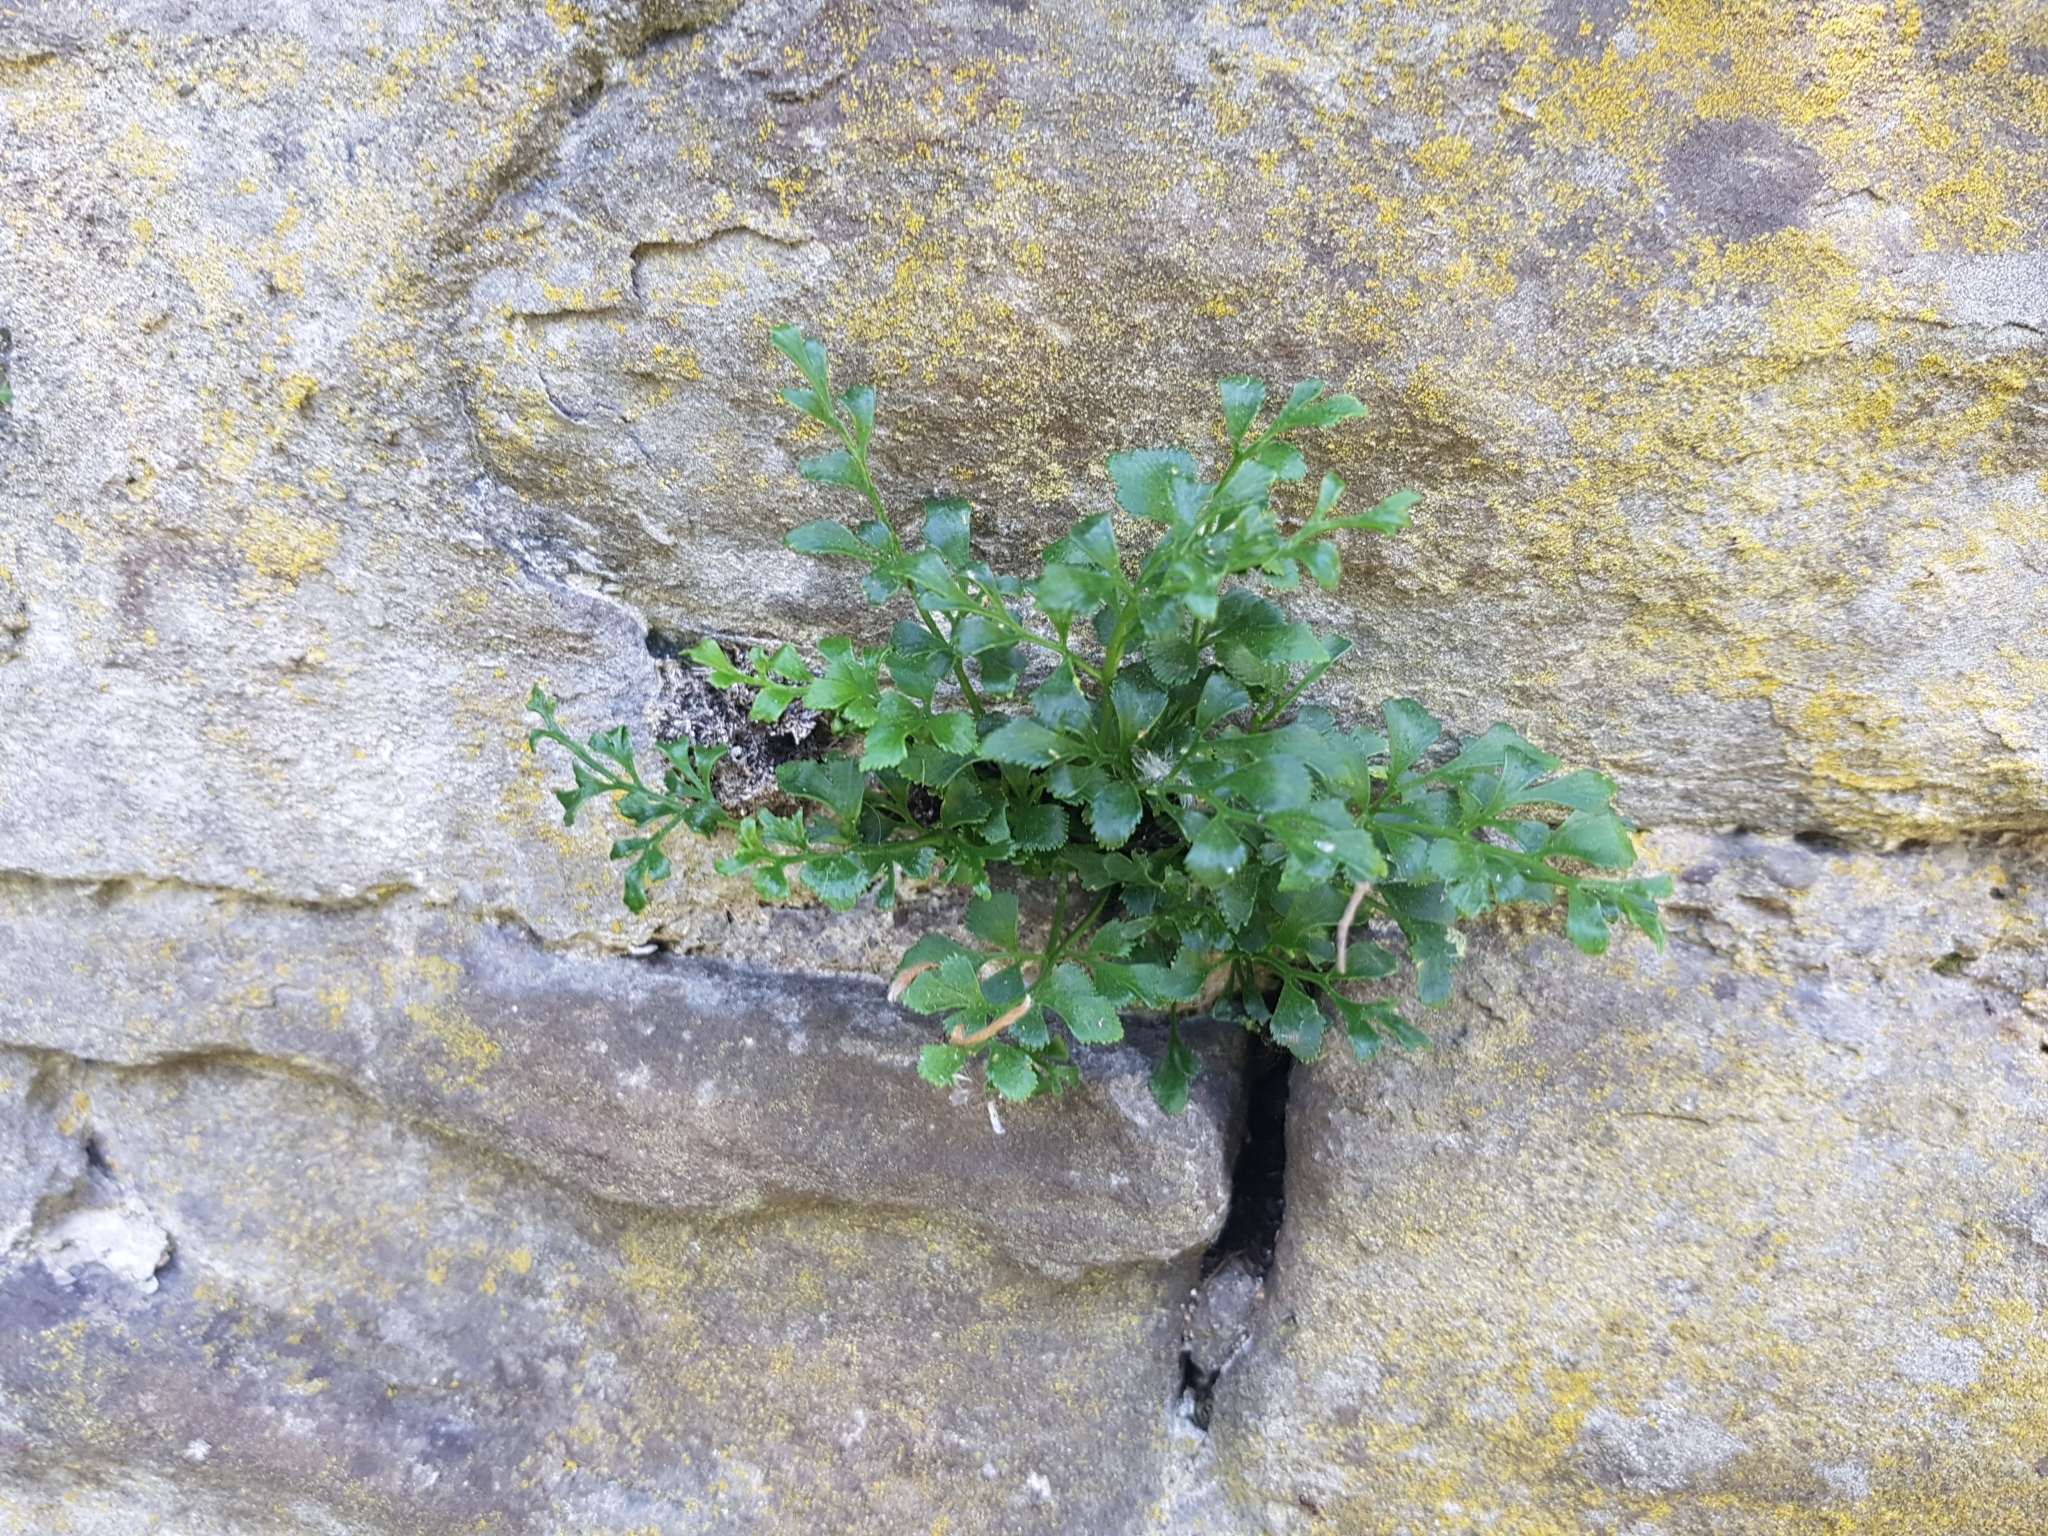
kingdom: Plantae
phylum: Tracheophyta
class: Polypodiopsida
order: Polypodiales
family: Aspleniaceae
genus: Asplenium
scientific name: Asplenium ruta-muraria
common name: Wall-rue
